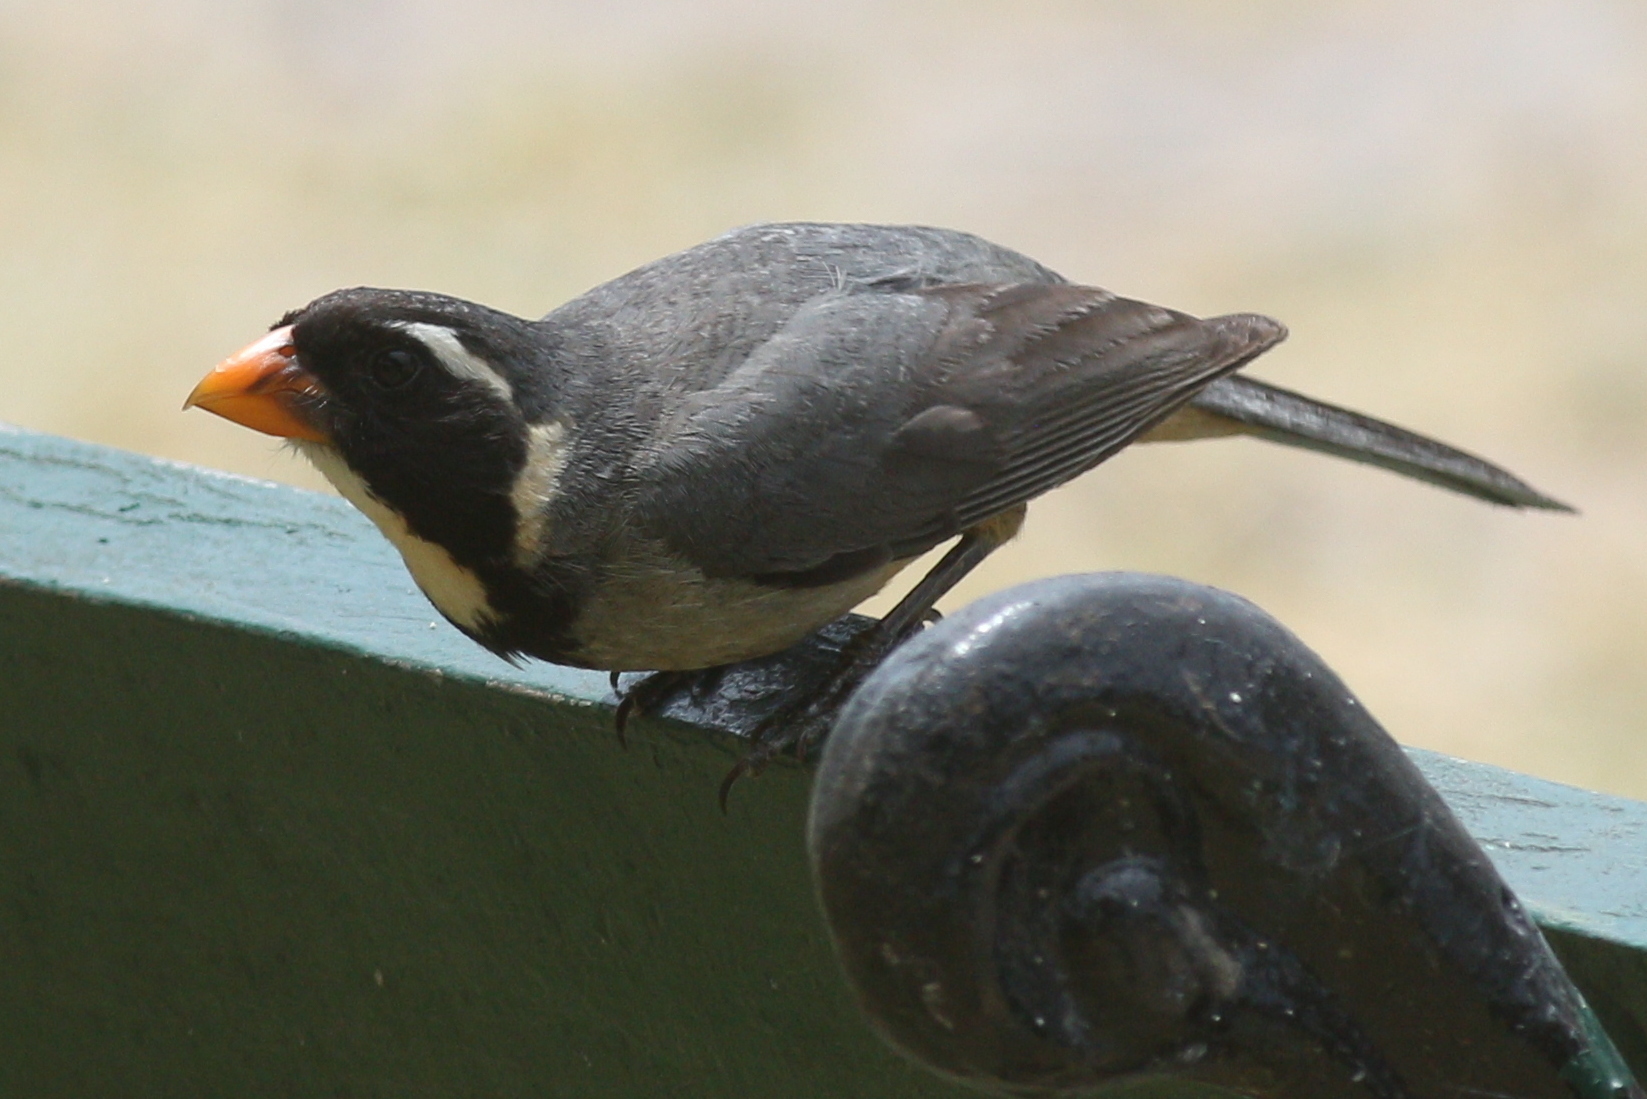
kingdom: Animalia
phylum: Chordata
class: Aves
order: Passeriformes
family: Thraupidae
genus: Saltator
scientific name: Saltator aurantiirostris
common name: Golden-billed saltator
